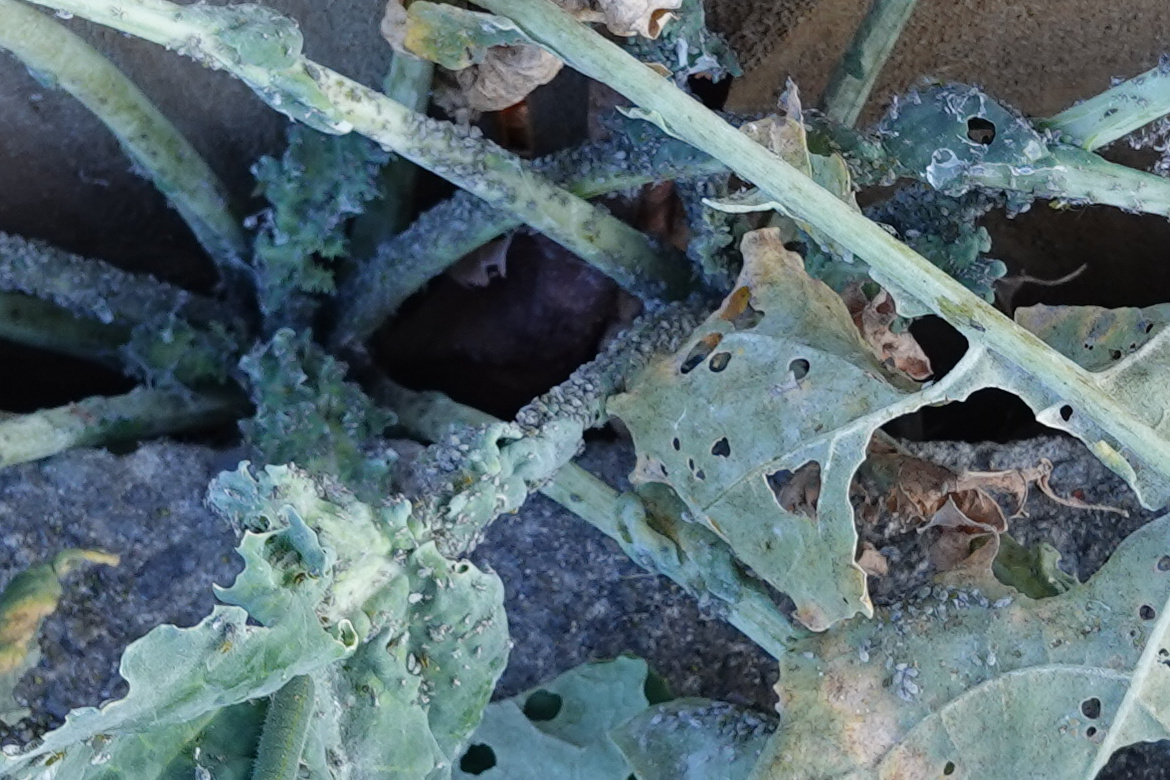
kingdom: Animalia
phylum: Arthropoda
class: Insecta
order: Hemiptera
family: Aphididae
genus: Brevicoryne
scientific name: Brevicoryne brassicae
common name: Cabbage aphid
